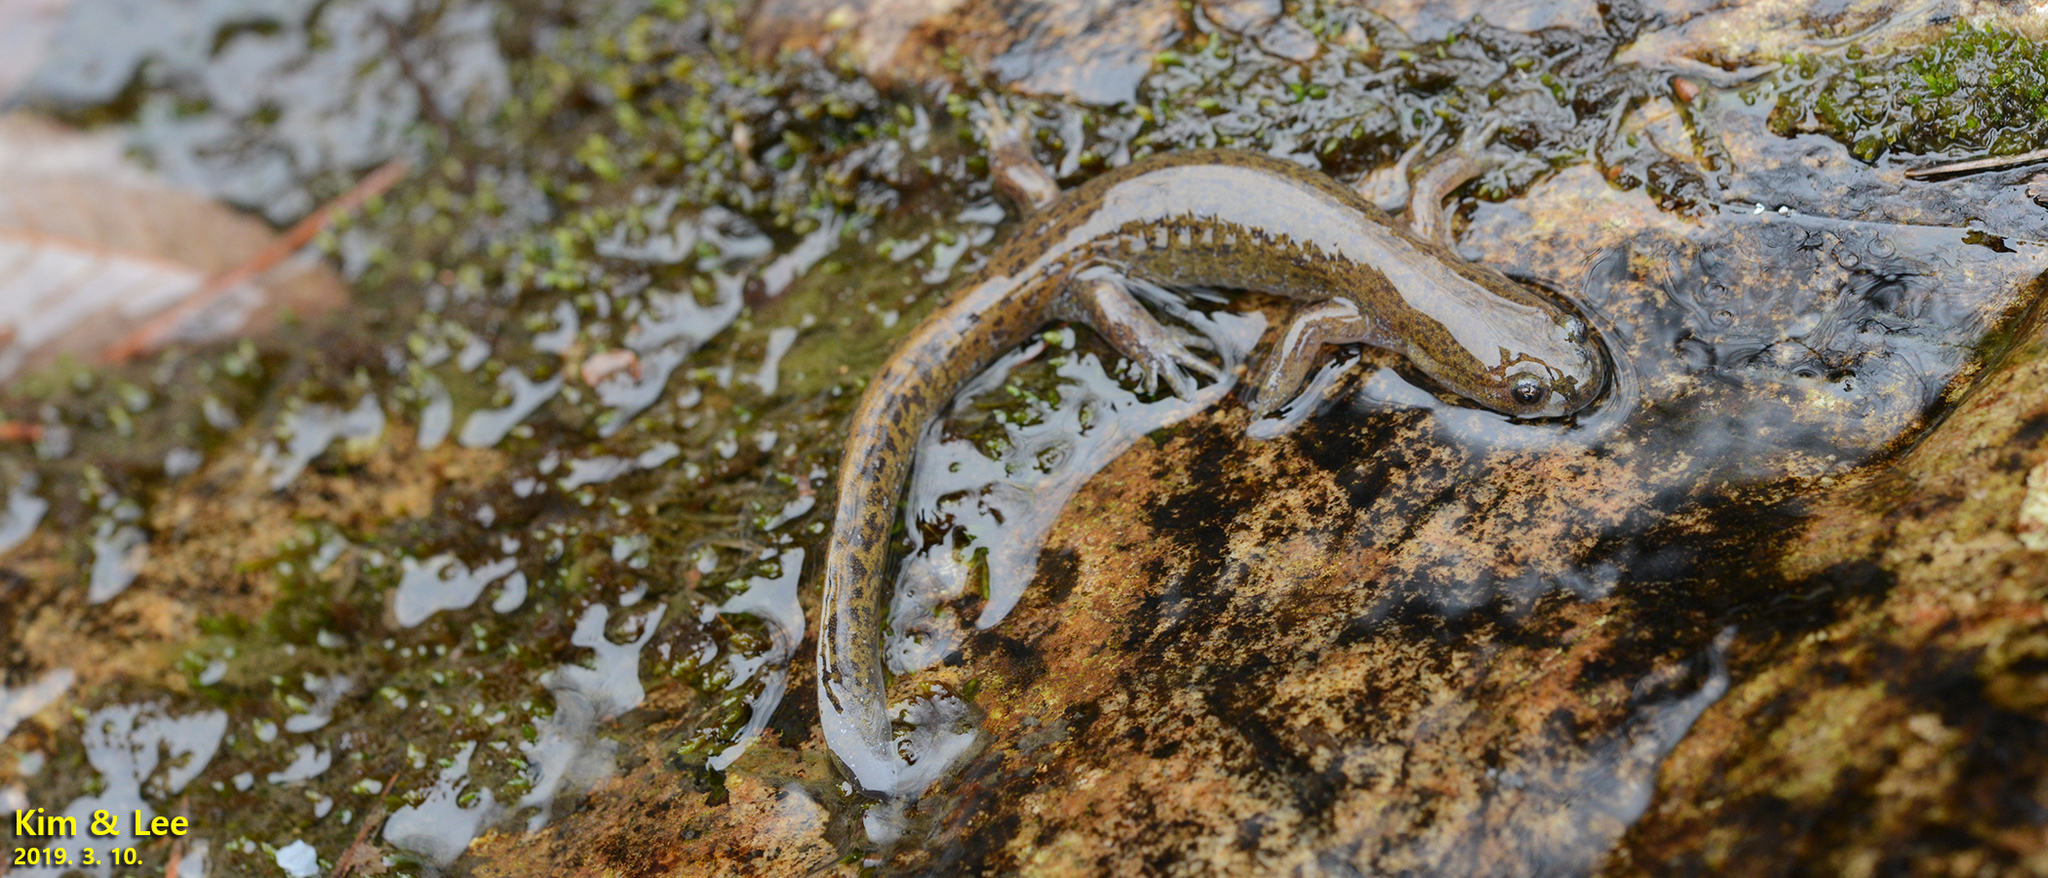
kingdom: Animalia
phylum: Chordata
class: Amphibia
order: Caudata
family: Hynobiidae
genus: Hynobius
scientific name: Hynobius geojeensis
